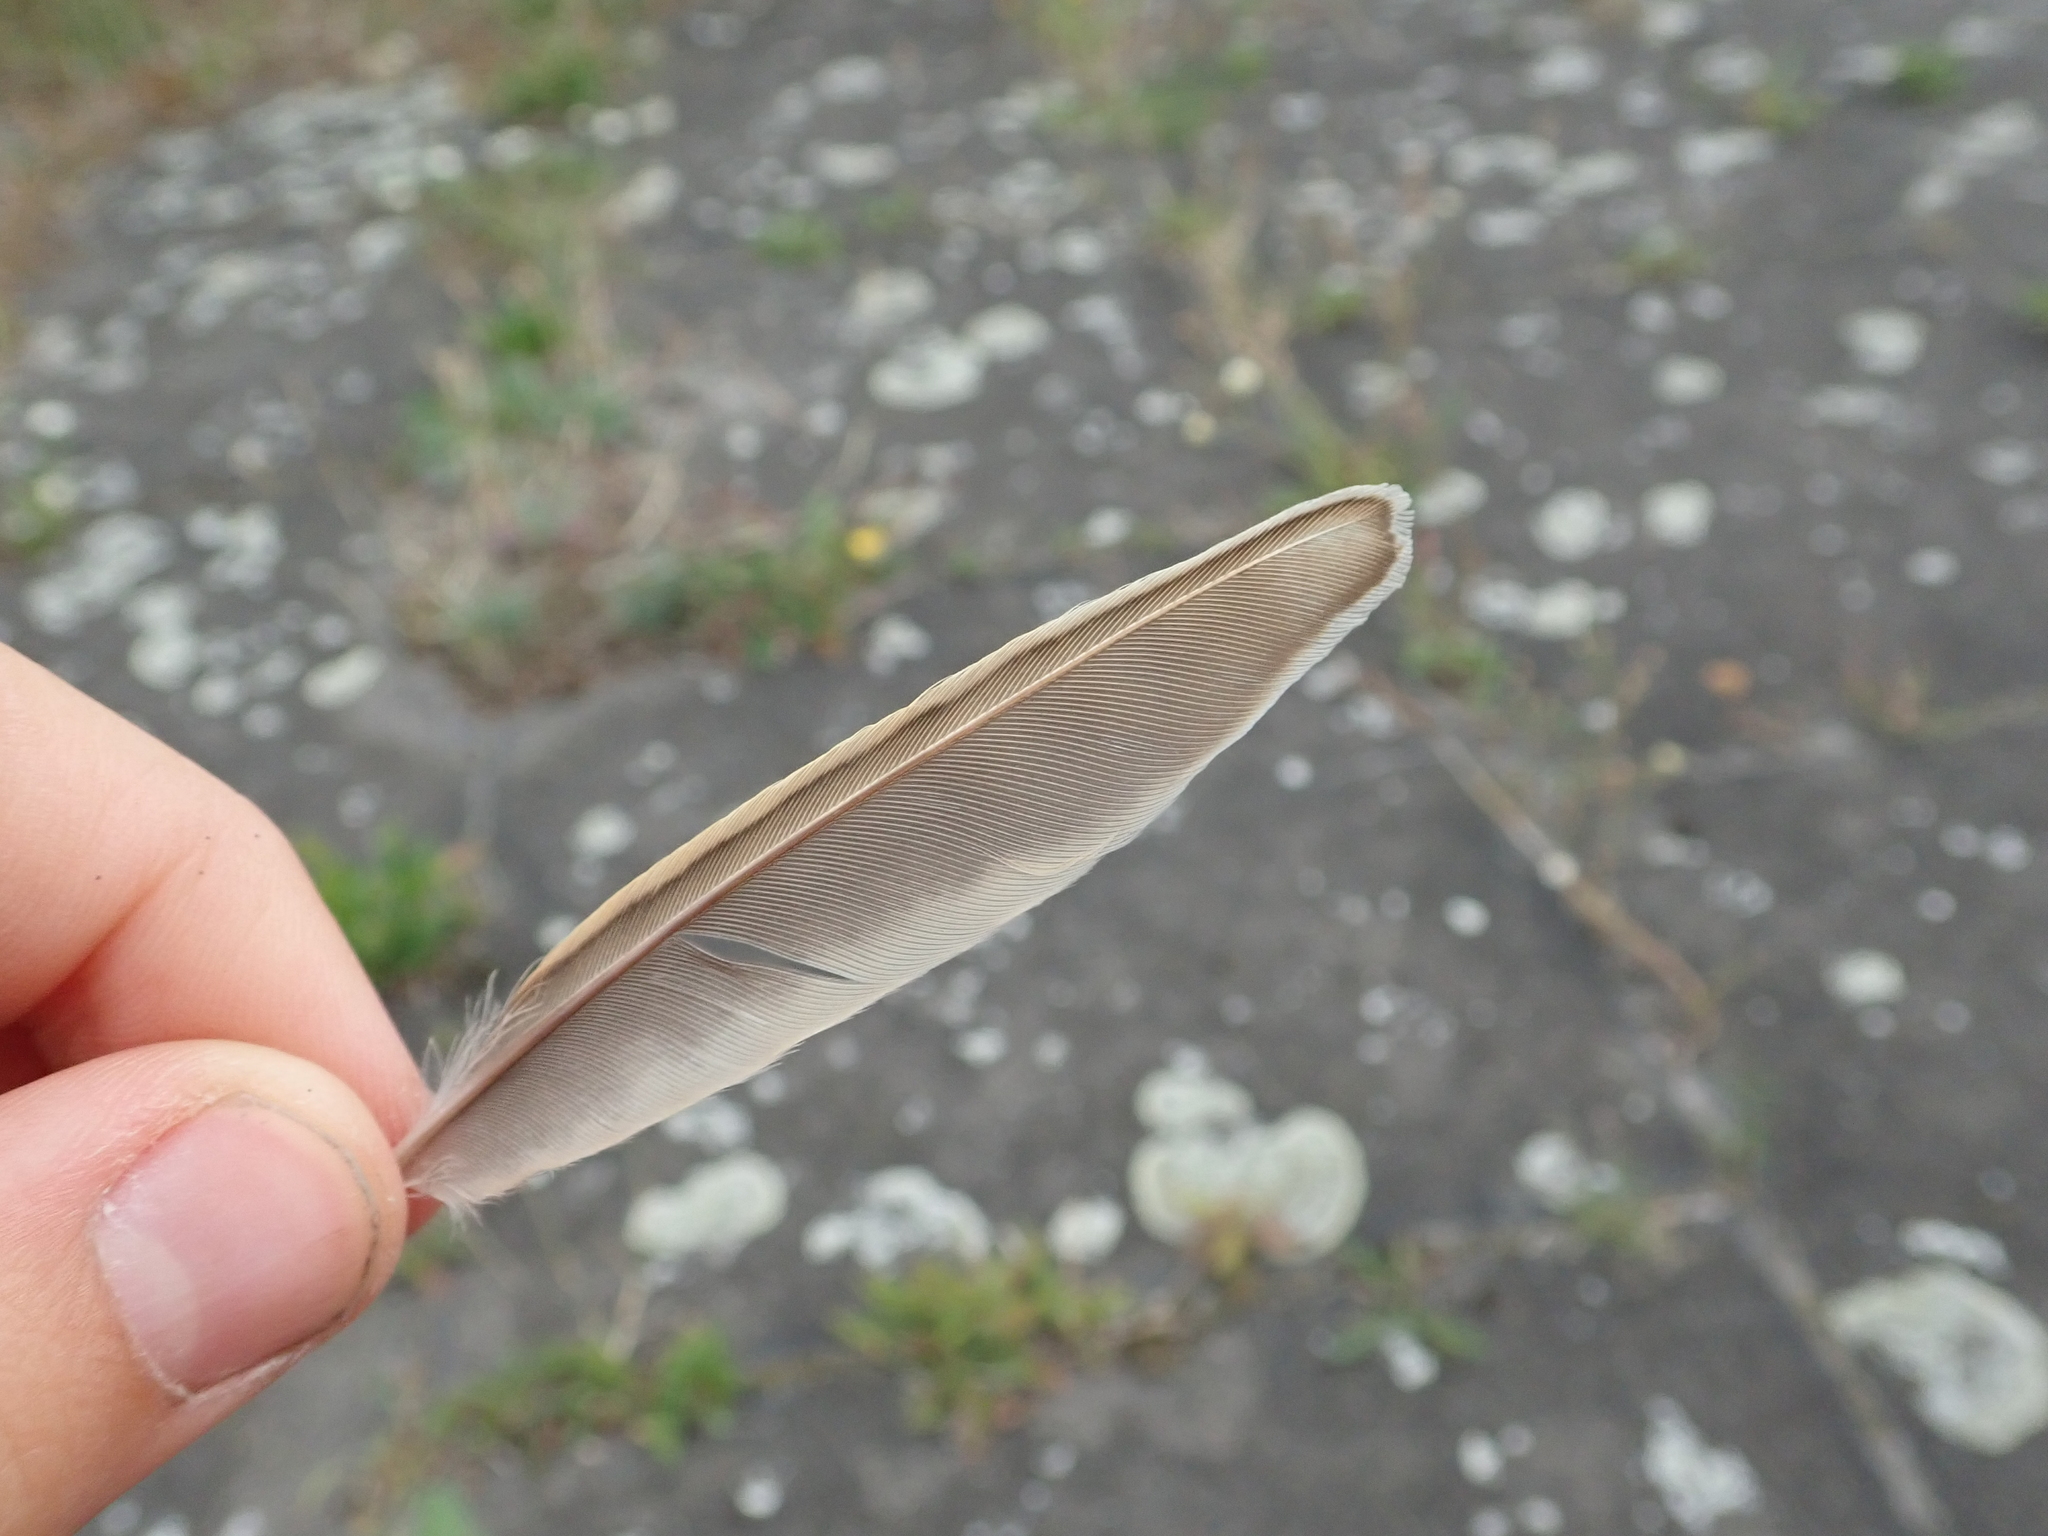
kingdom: Animalia
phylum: Chordata
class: Aves
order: Passeriformes
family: Alaudidae
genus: Alauda
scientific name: Alauda arvensis
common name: Eurasian skylark
